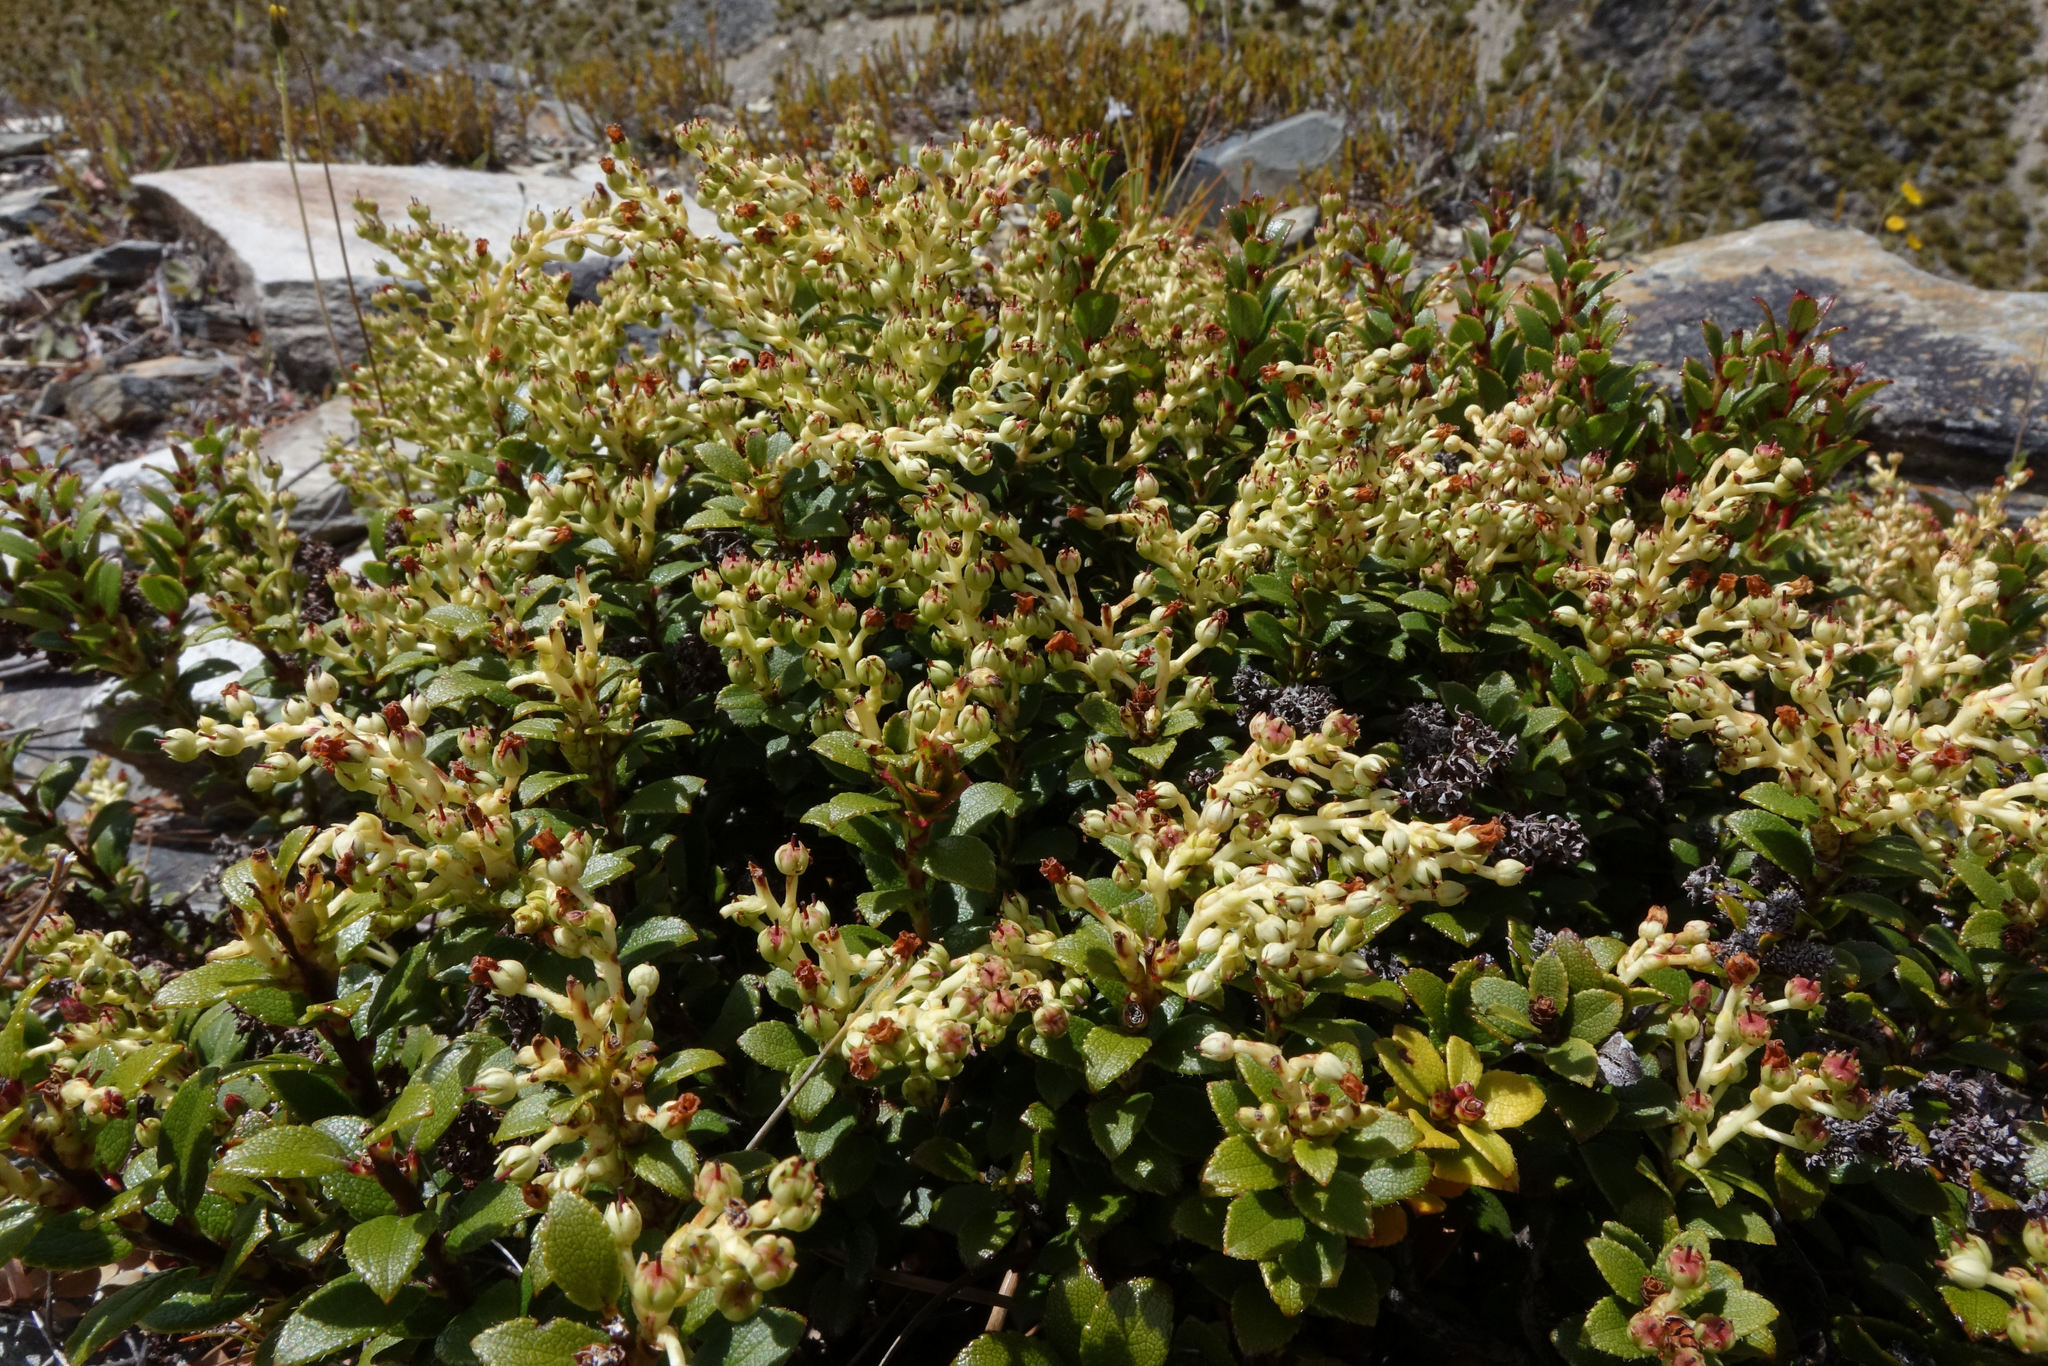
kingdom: Plantae
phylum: Tracheophyta
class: Magnoliopsida
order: Ericales
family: Ericaceae
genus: Gaultheria
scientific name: Gaultheria crassa
